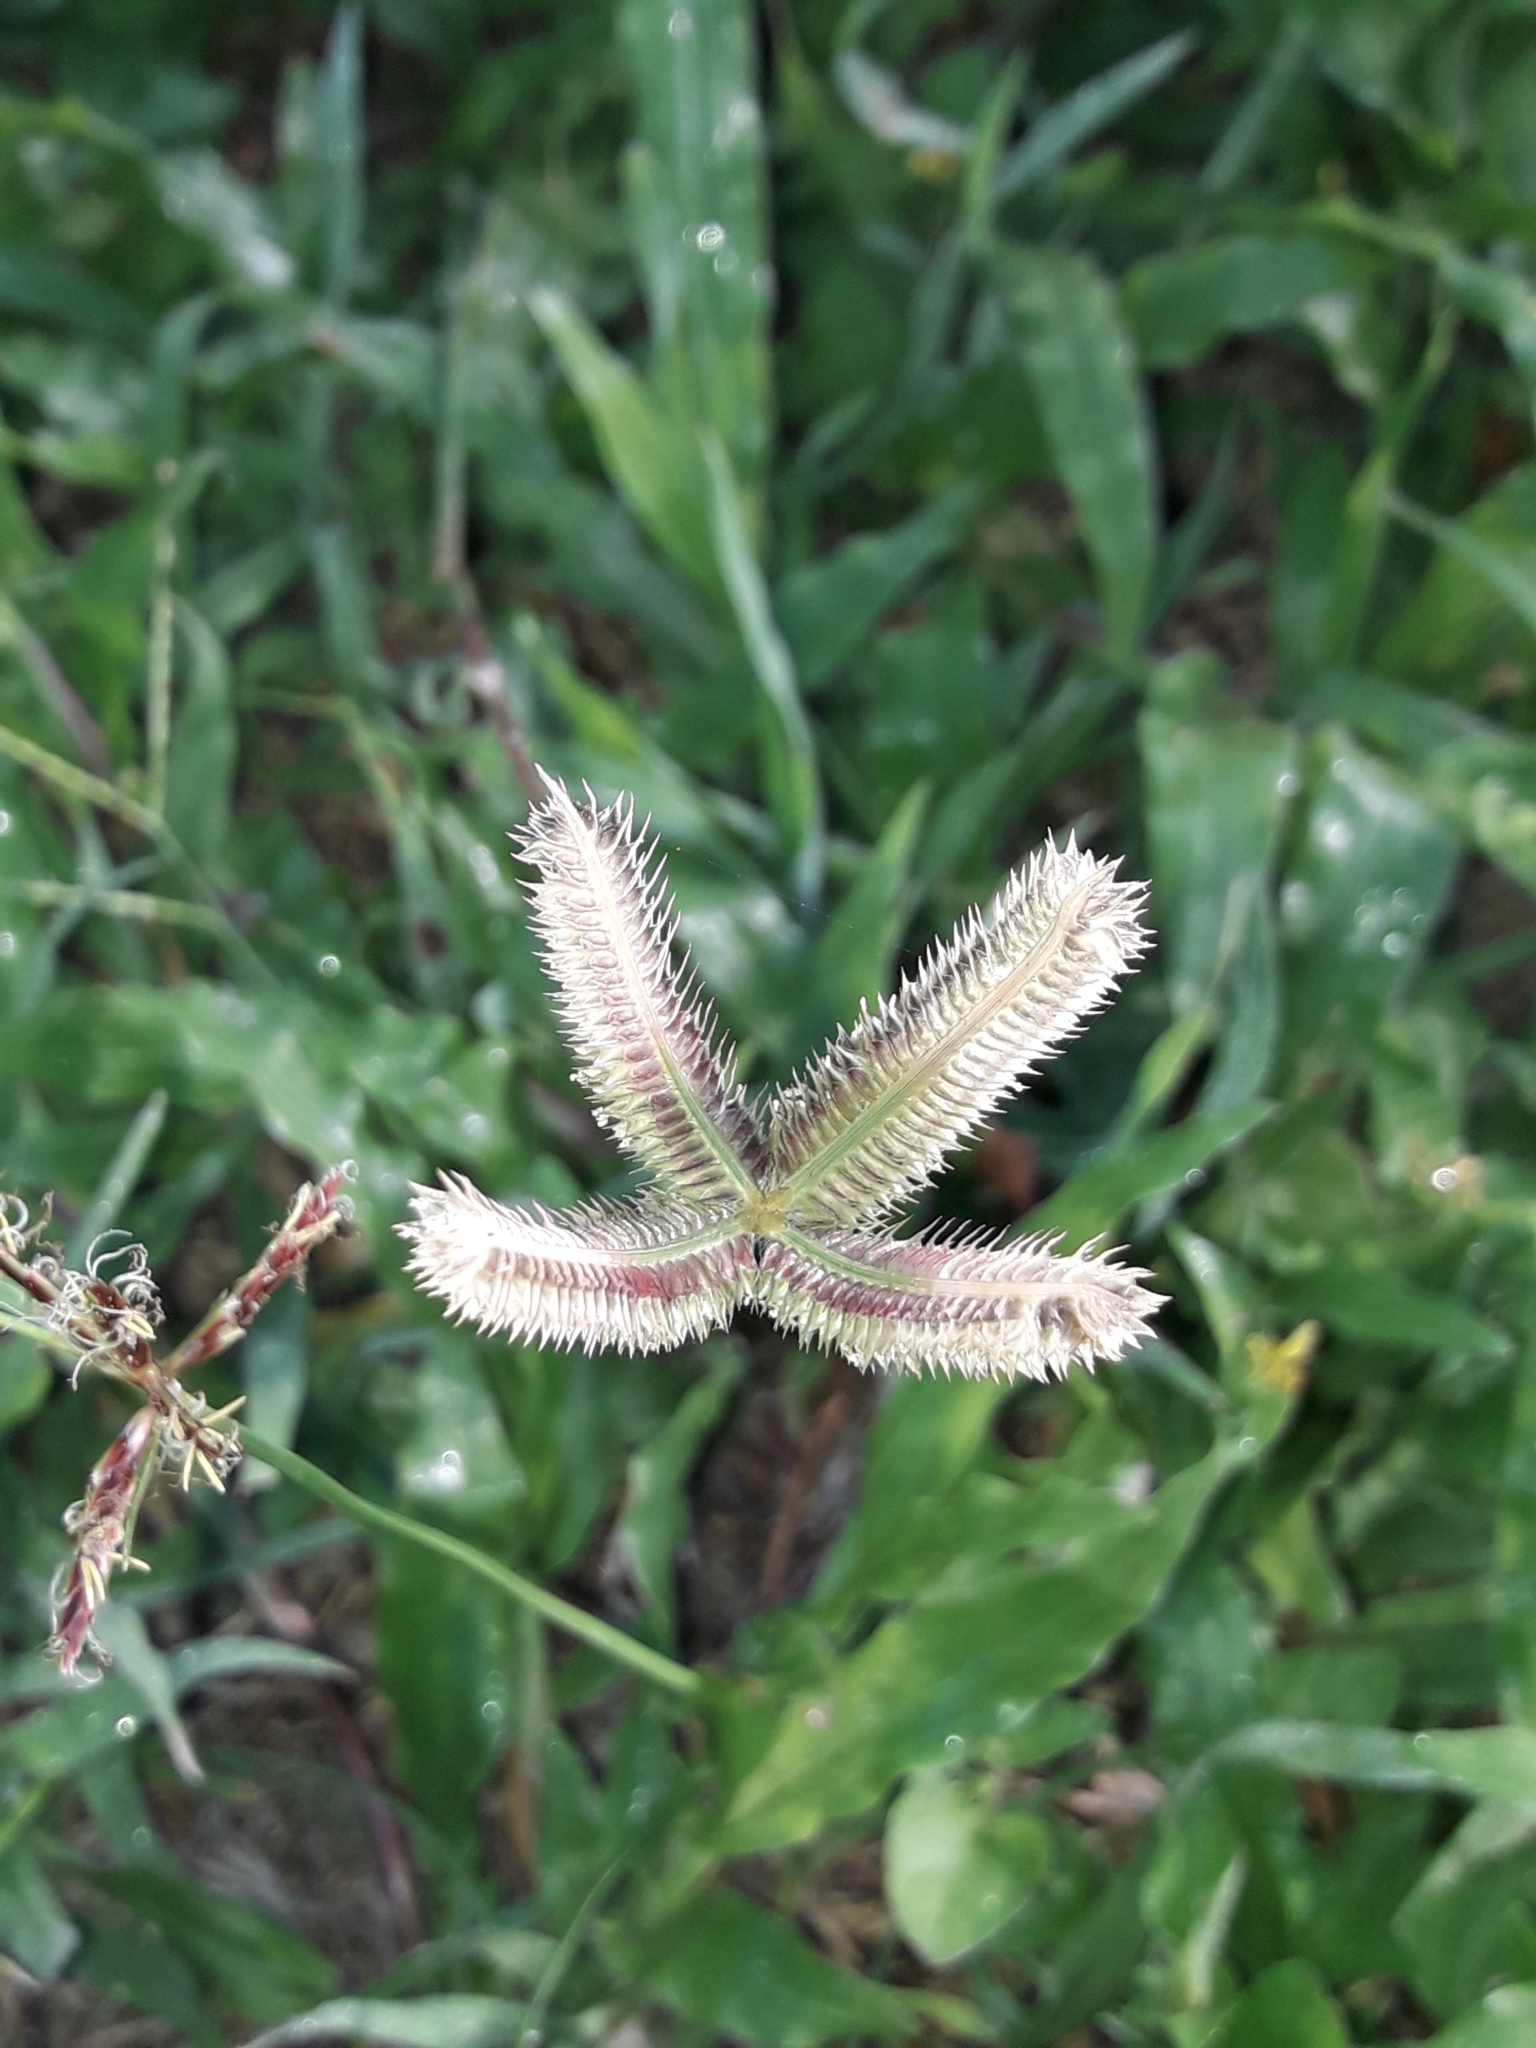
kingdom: Plantae
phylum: Tracheophyta
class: Liliopsida
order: Poales
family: Poaceae
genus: Dactyloctenium
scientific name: Dactyloctenium aegyptium
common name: Egyptian grass
